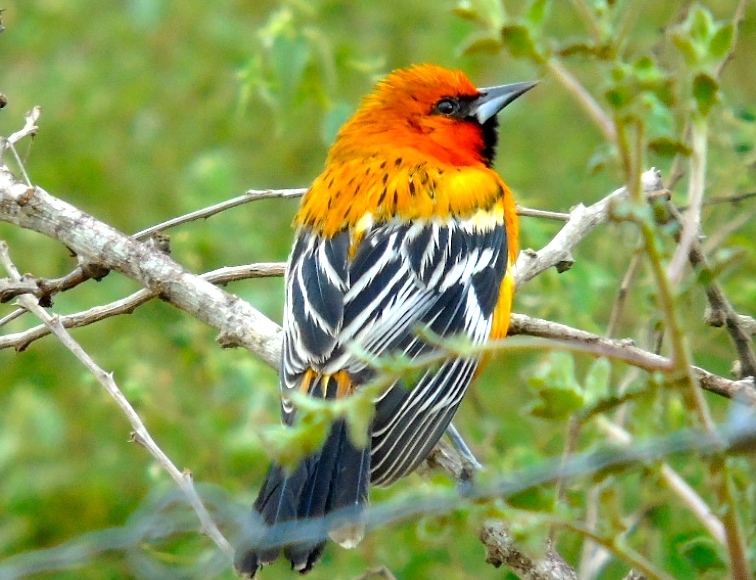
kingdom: Animalia
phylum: Chordata
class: Aves
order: Passeriformes
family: Icteridae
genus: Icterus
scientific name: Icterus pustulatus
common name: Streak-backed oriole
